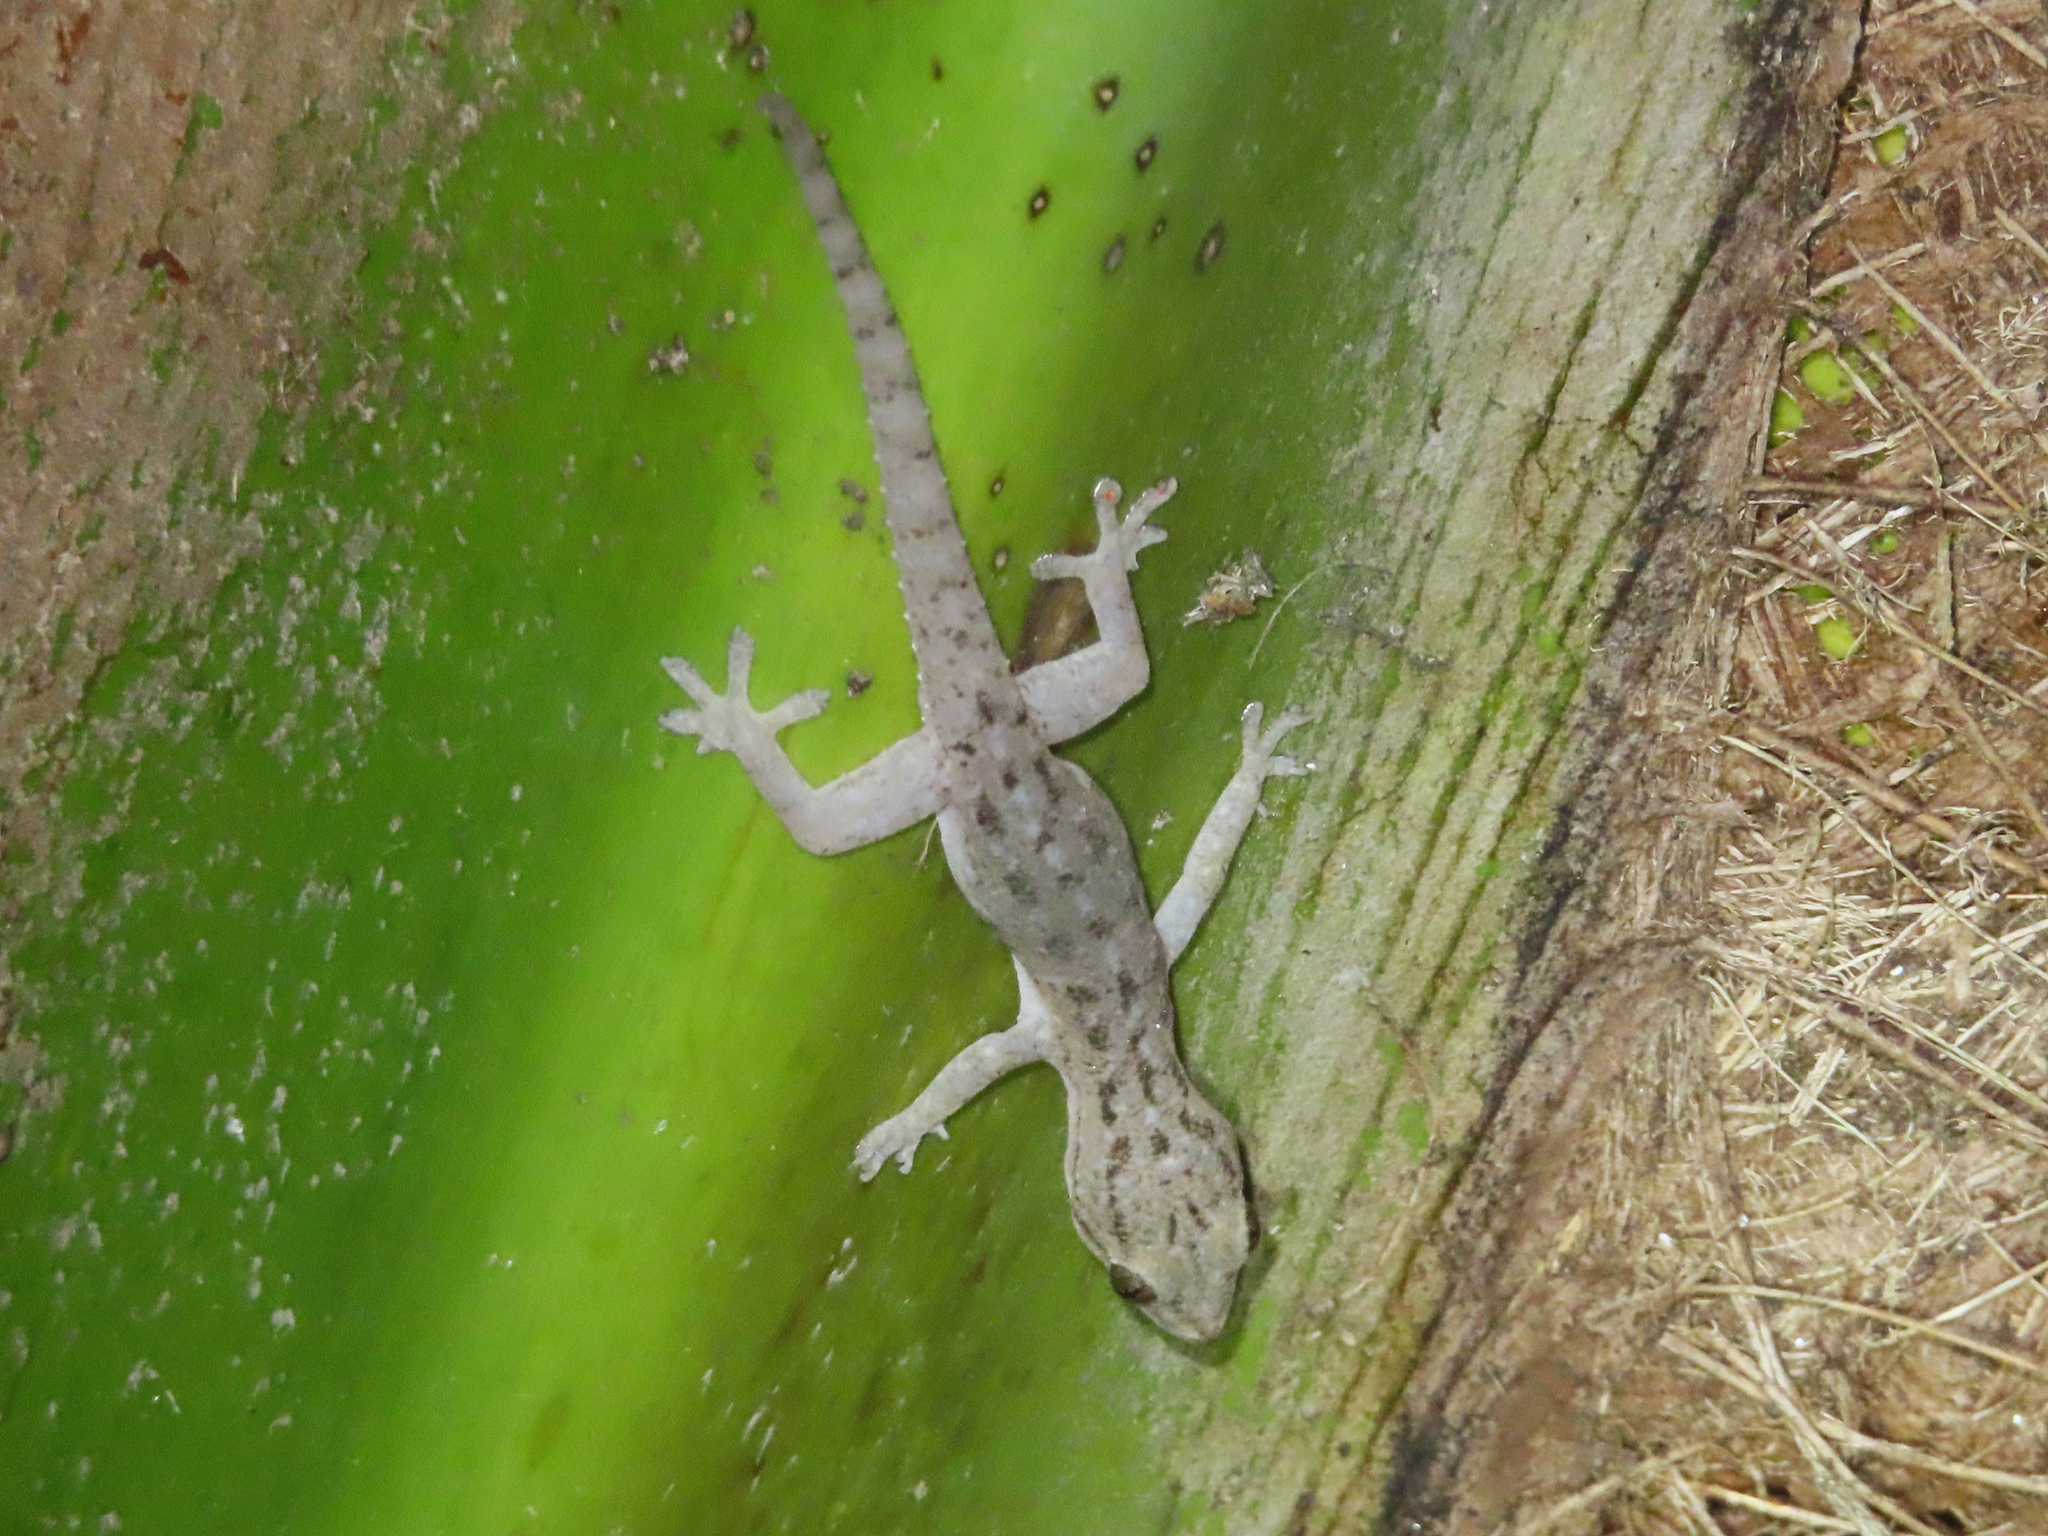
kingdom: Animalia
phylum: Chordata
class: Squamata
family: Gekkonidae
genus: Hemidactylus
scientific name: Hemidactylus frenatus
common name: Common house gecko
